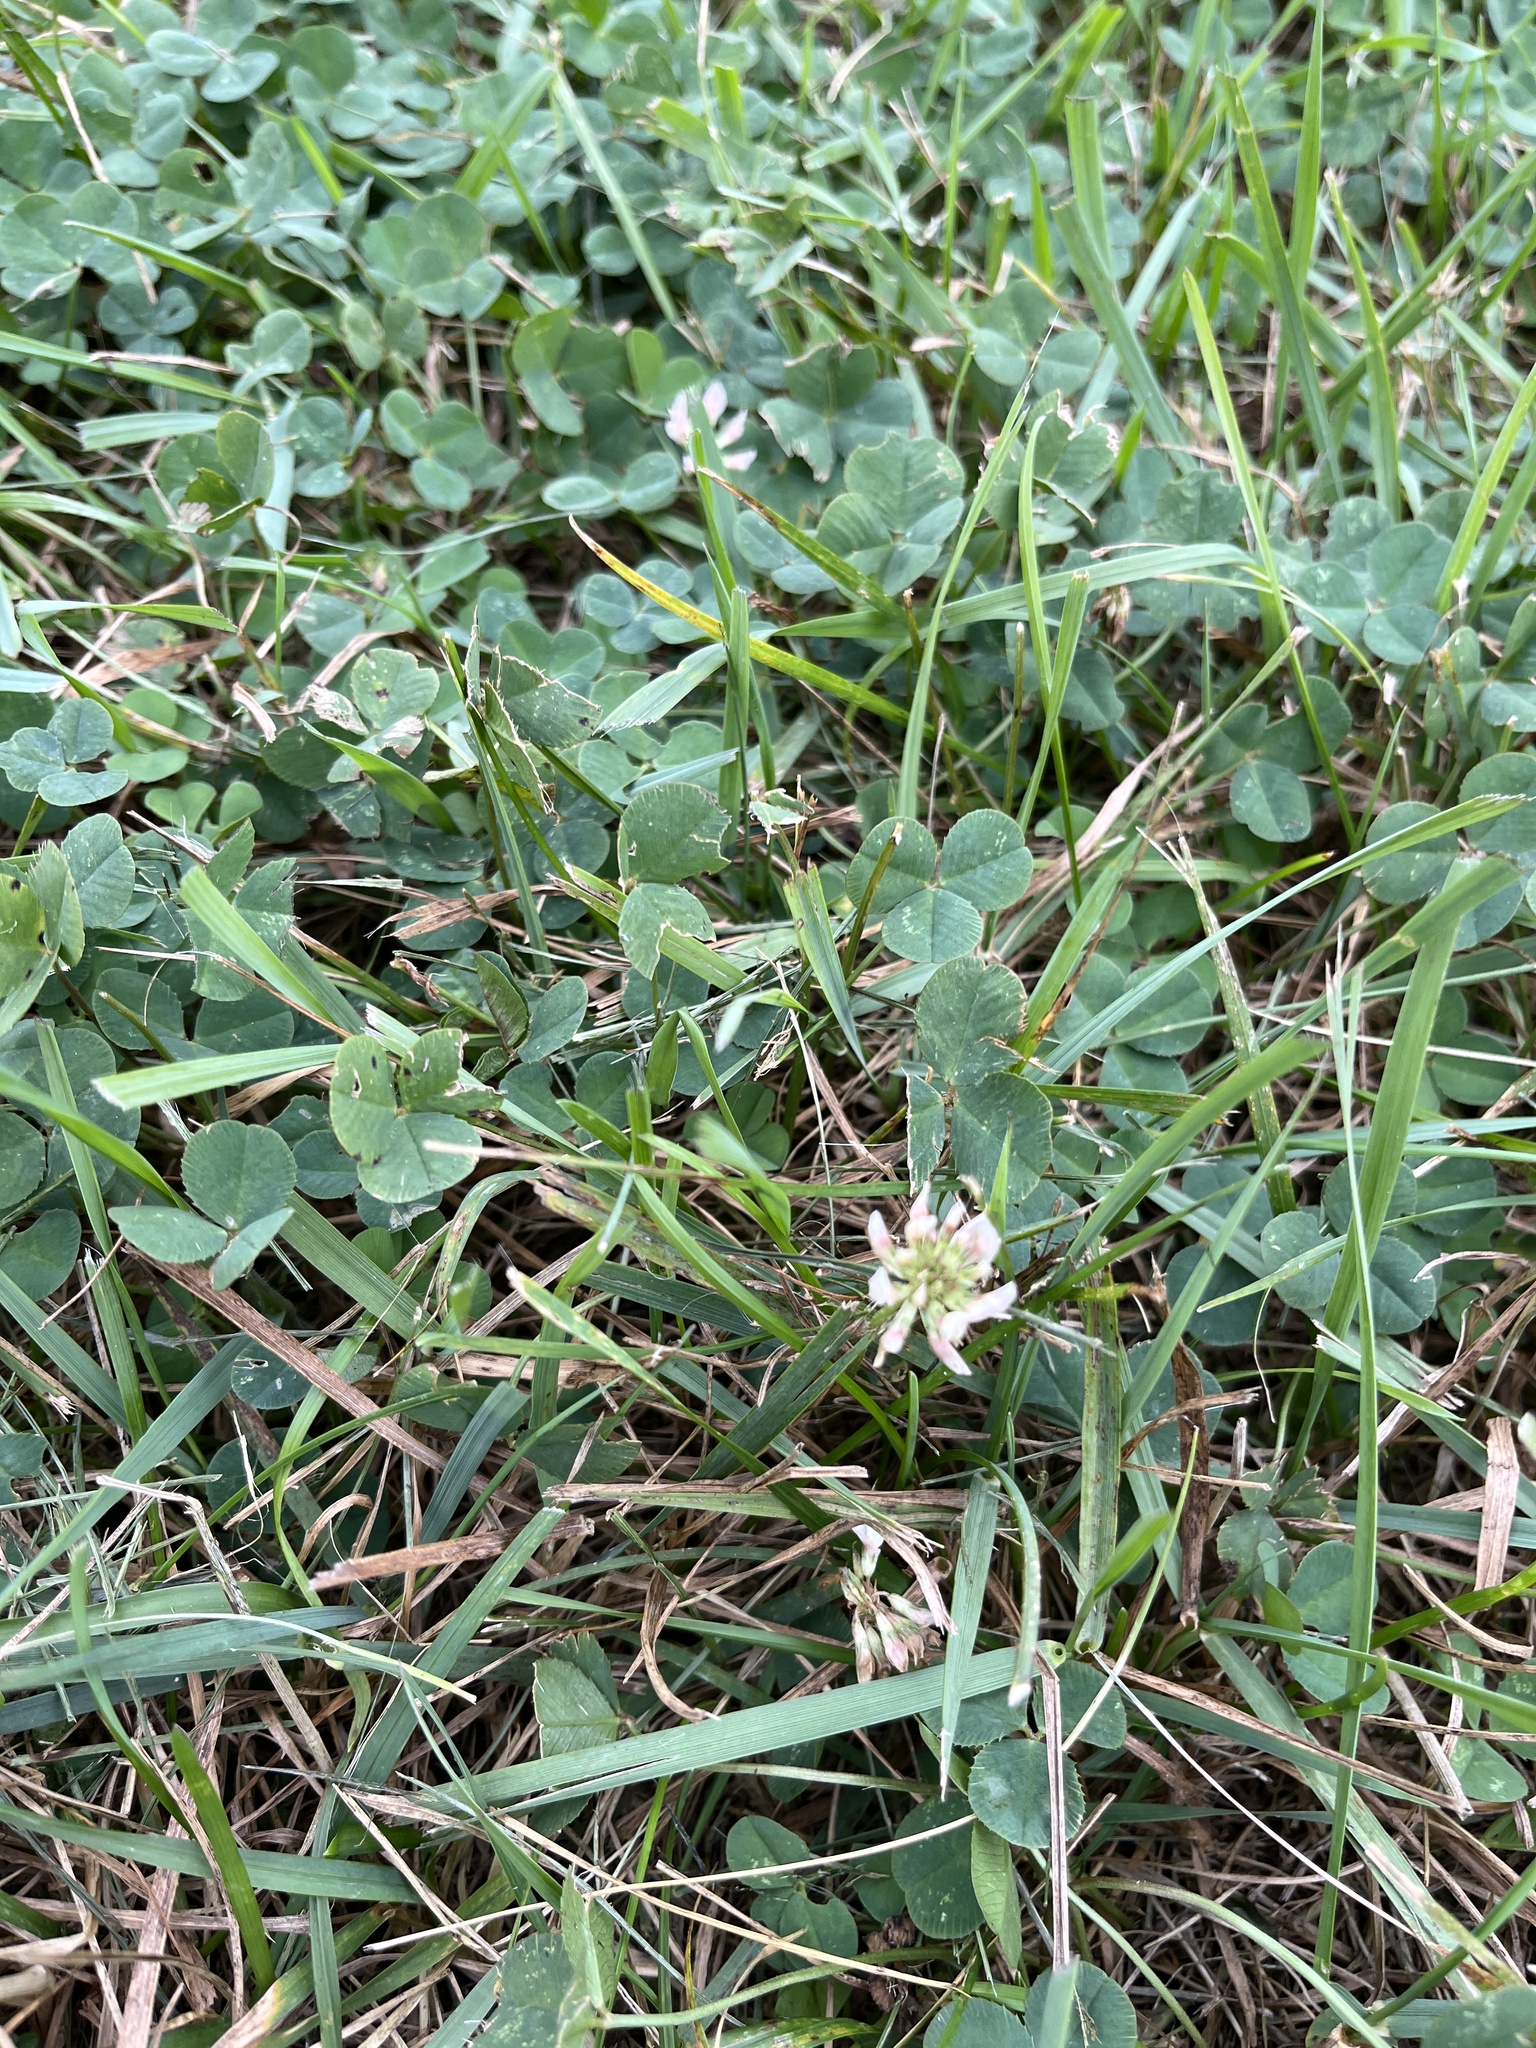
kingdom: Plantae
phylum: Tracheophyta
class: Magnoliopsida
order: Fabales
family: Fabaceae
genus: Trifolium
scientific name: Trifolium repens
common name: White clover
